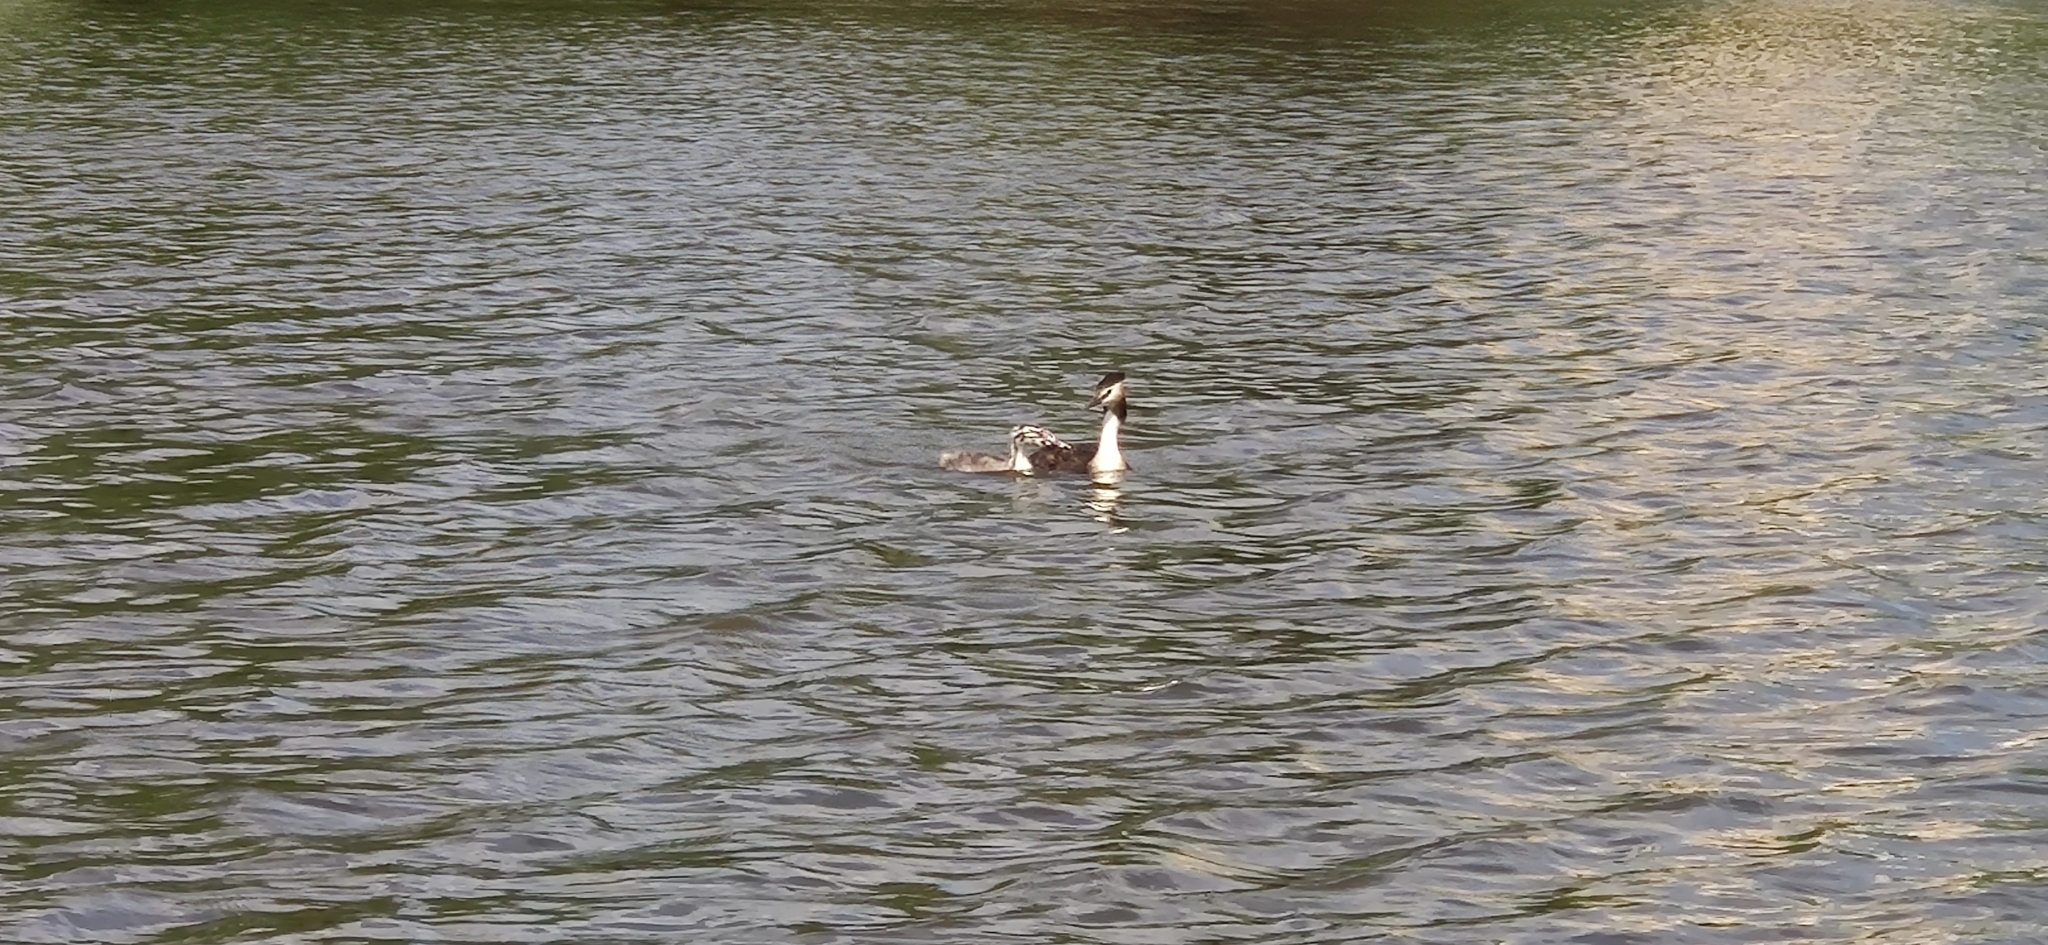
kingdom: Animalia
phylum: Chordata
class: Aves
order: Podicipediformes
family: Podicipedidae
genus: Podiceps
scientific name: Podiceps cristatus
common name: Great crested grebe
